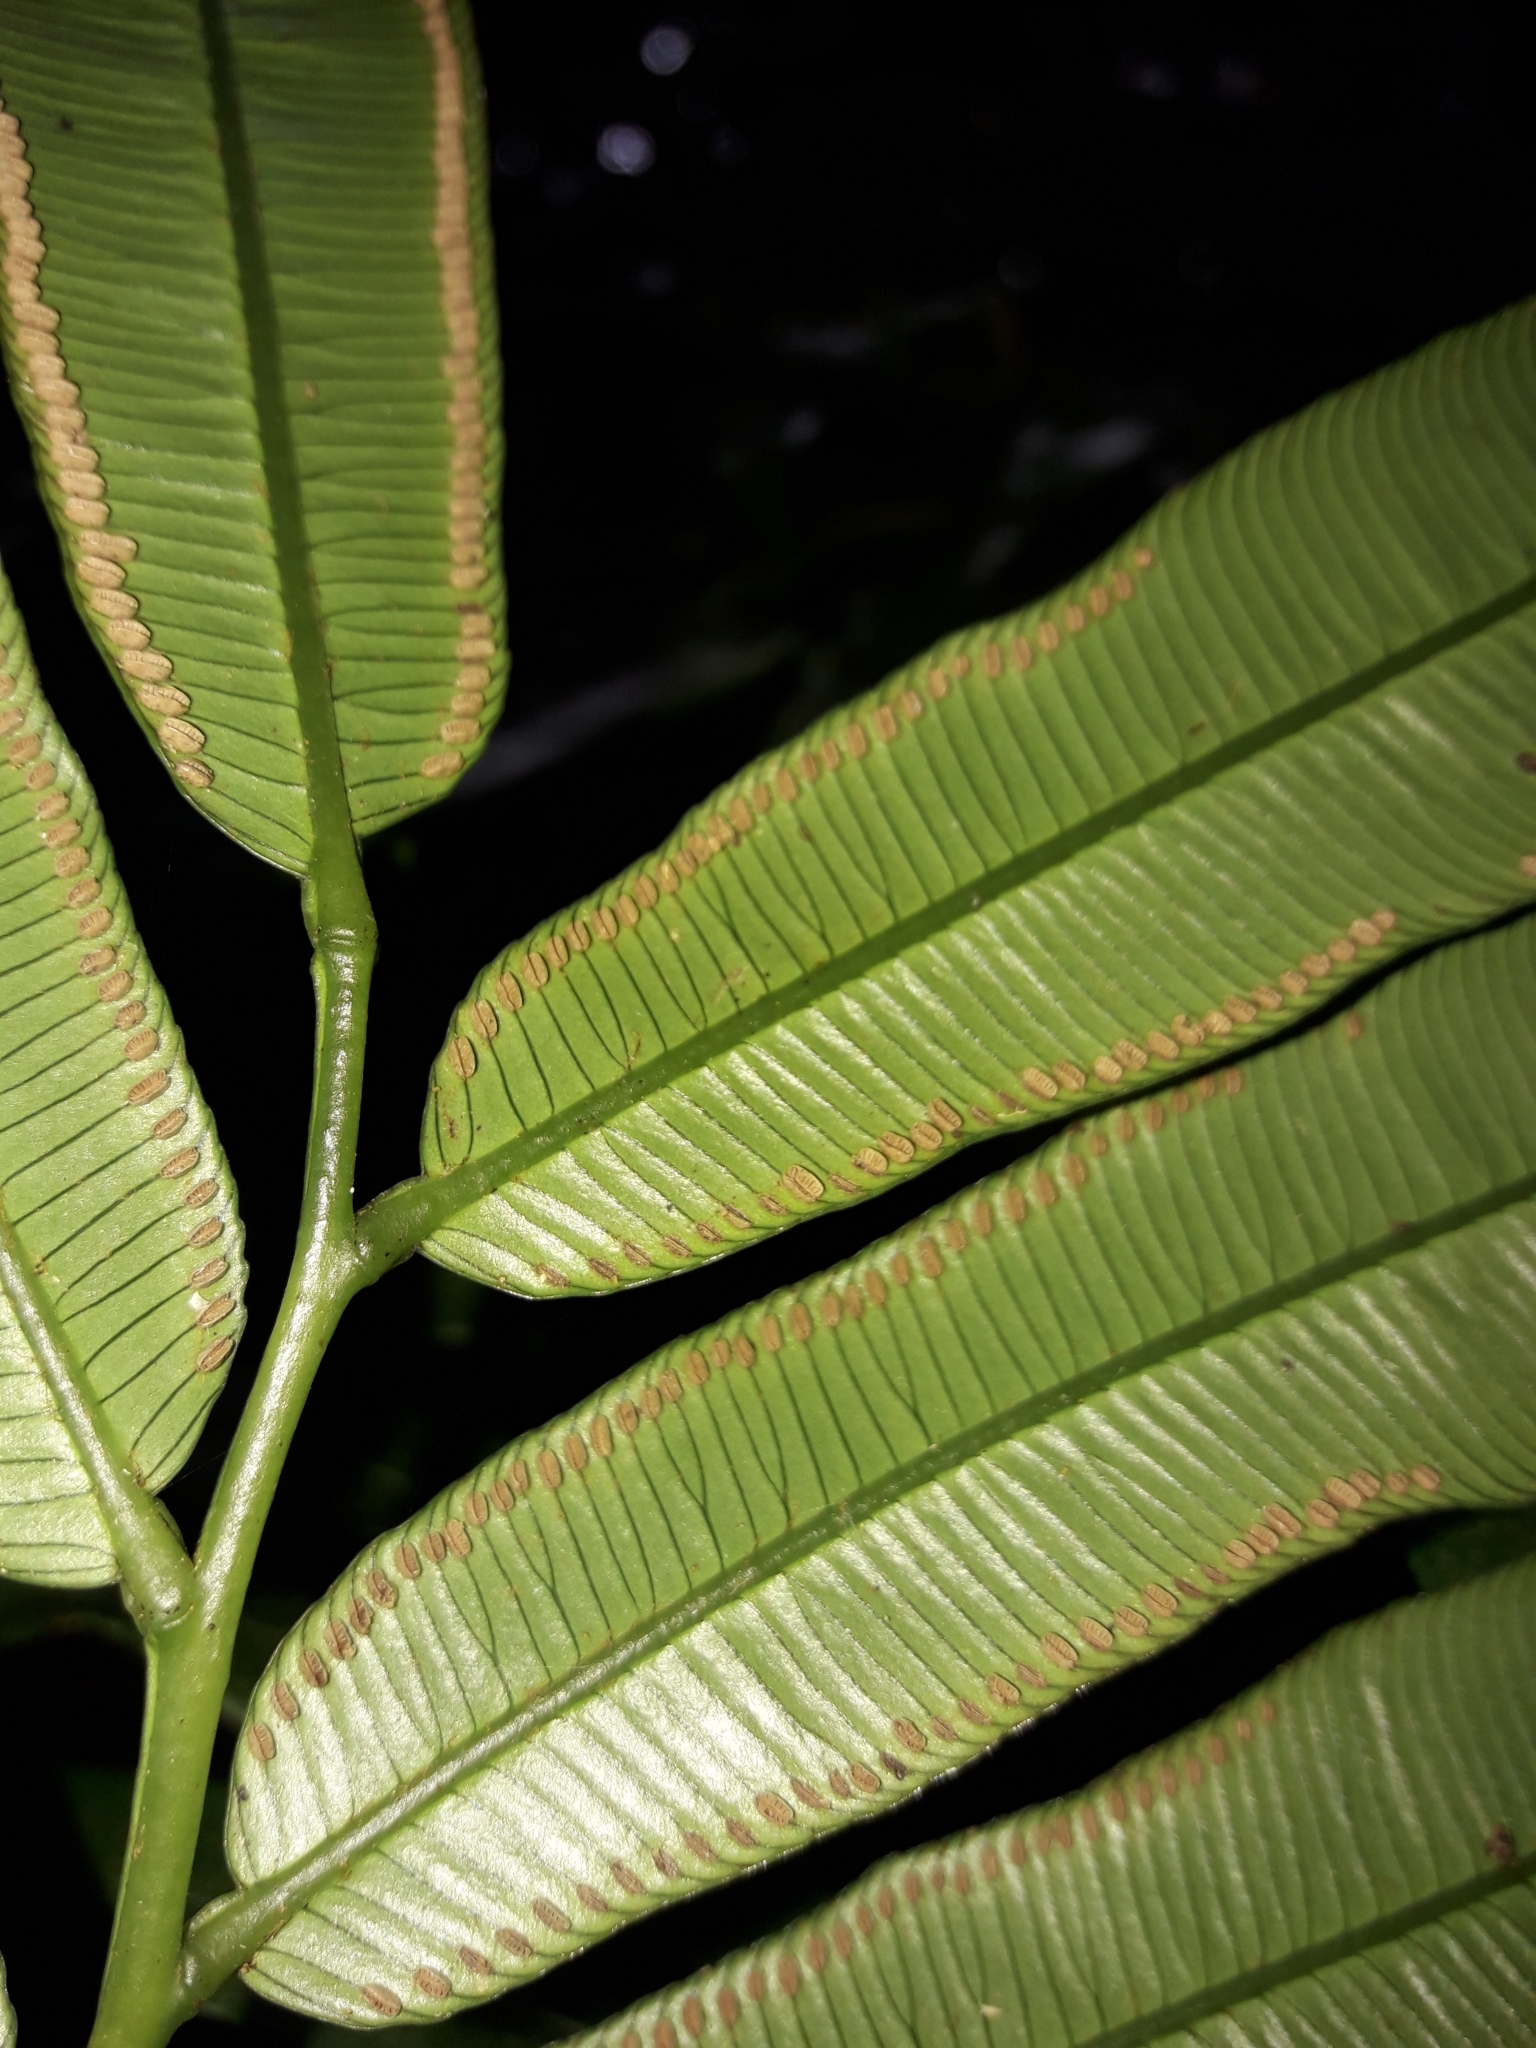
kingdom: Plantae
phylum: Tracheophyta
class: Polypodiopsida
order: Marattiales
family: Marattiaceae
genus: Ptisana
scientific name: Ptisana salicina
